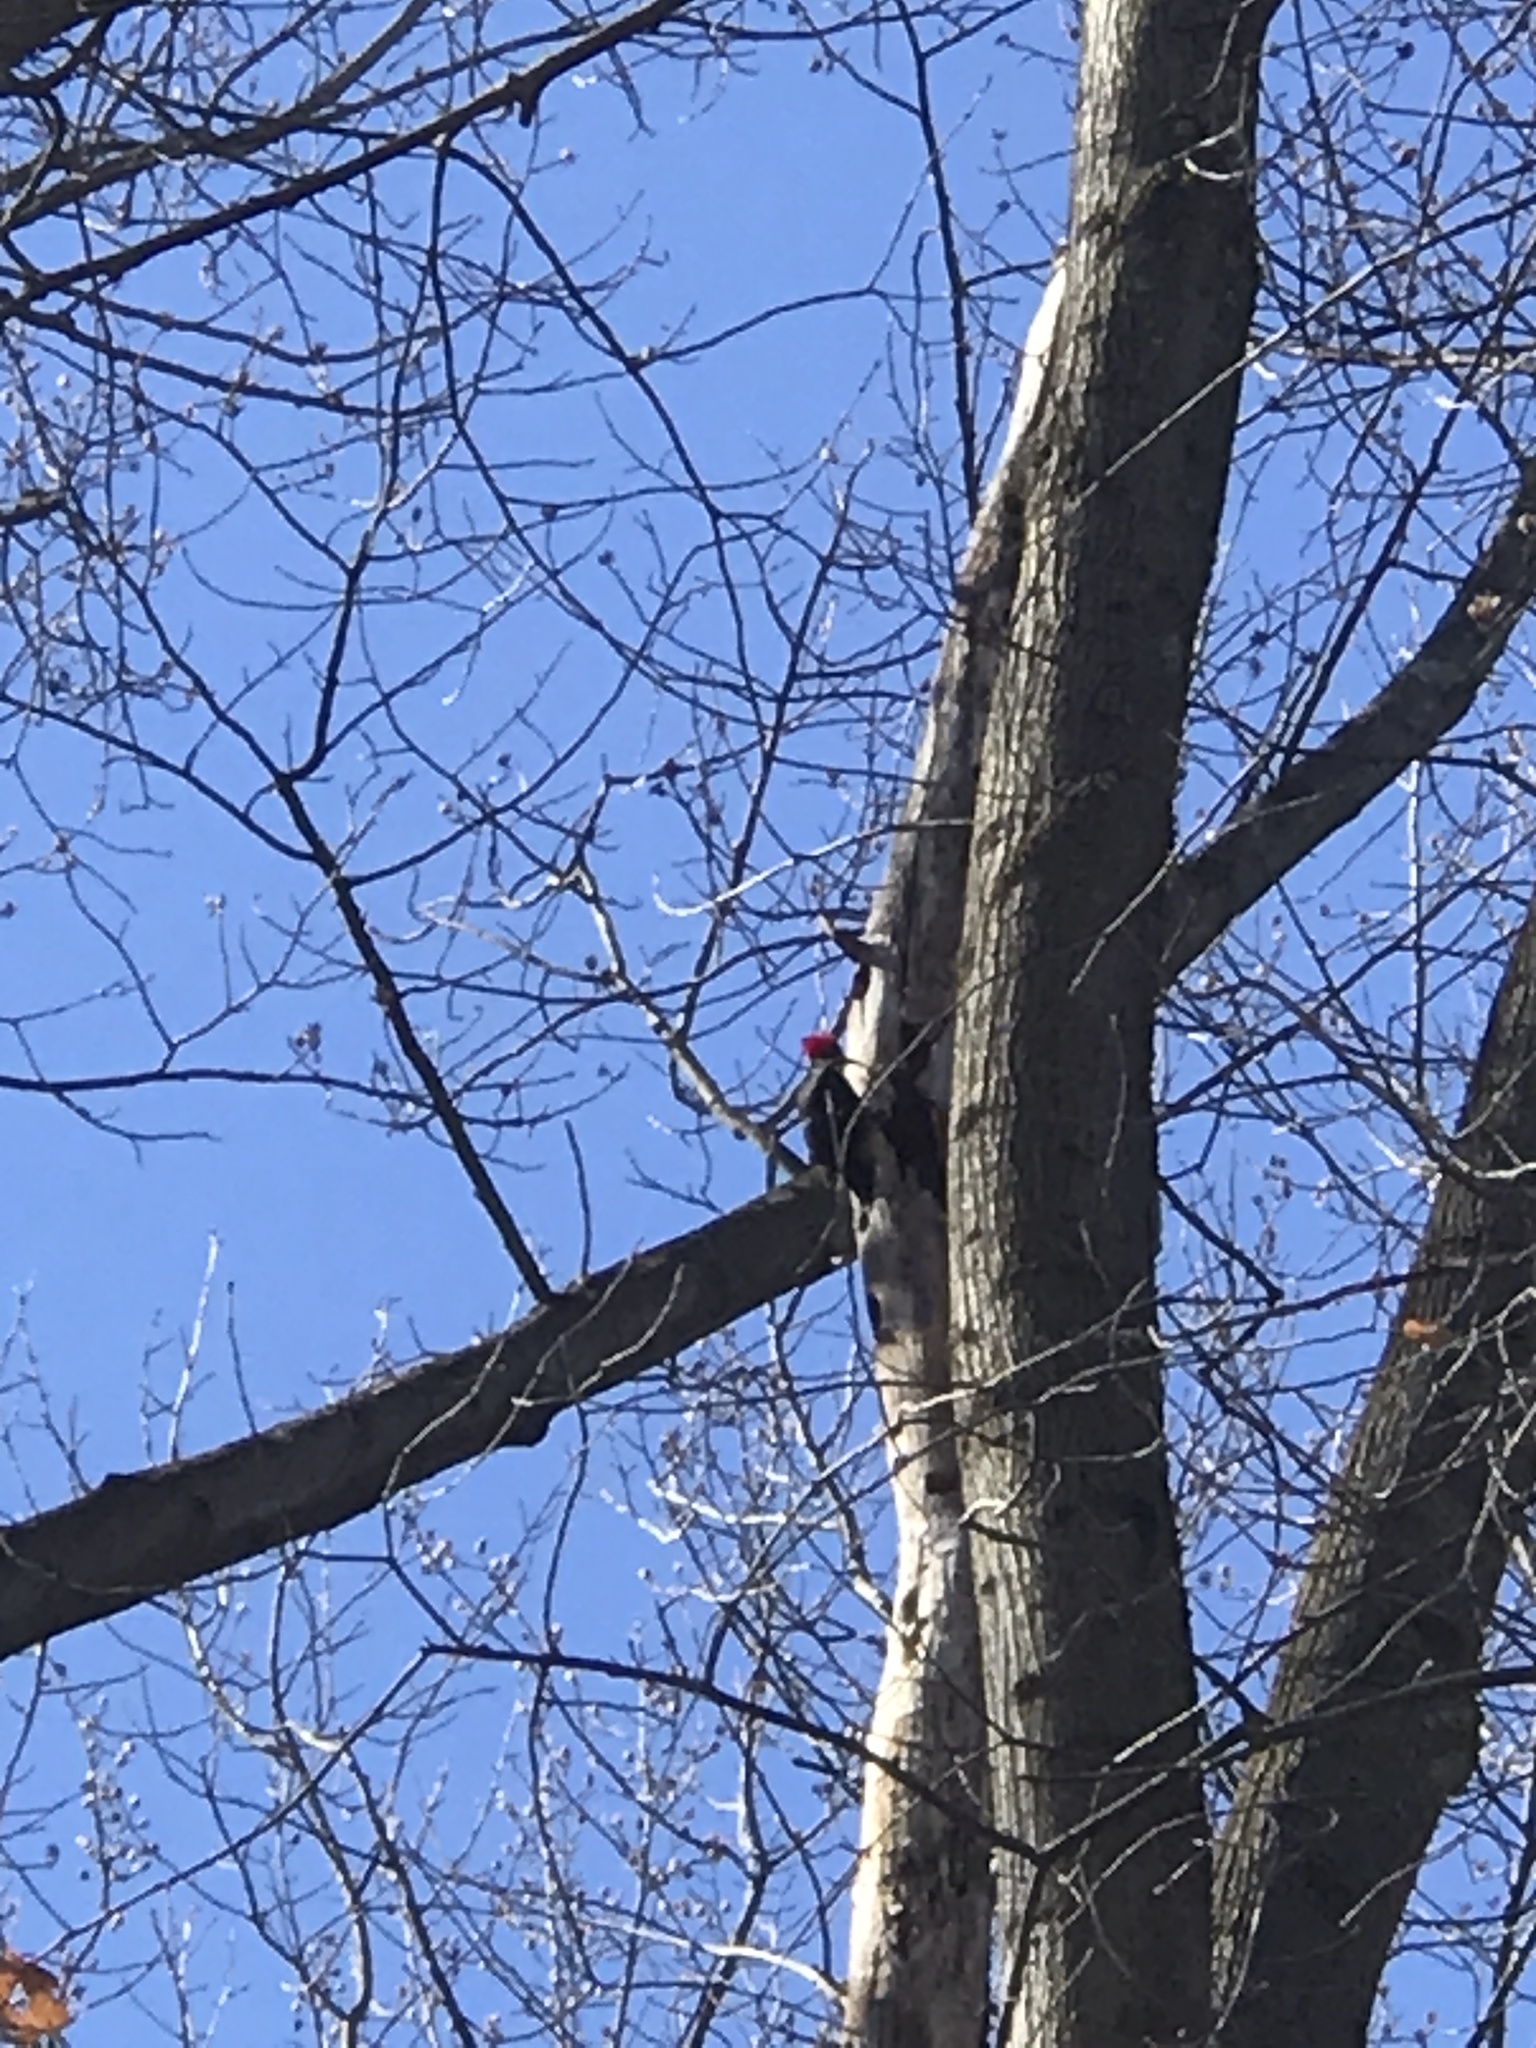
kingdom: Animalia
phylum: Chordata
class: Aves
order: Piciformes
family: Picidae
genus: Dryocopus
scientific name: Dryocopus pileatus
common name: Pileated woodpecker
